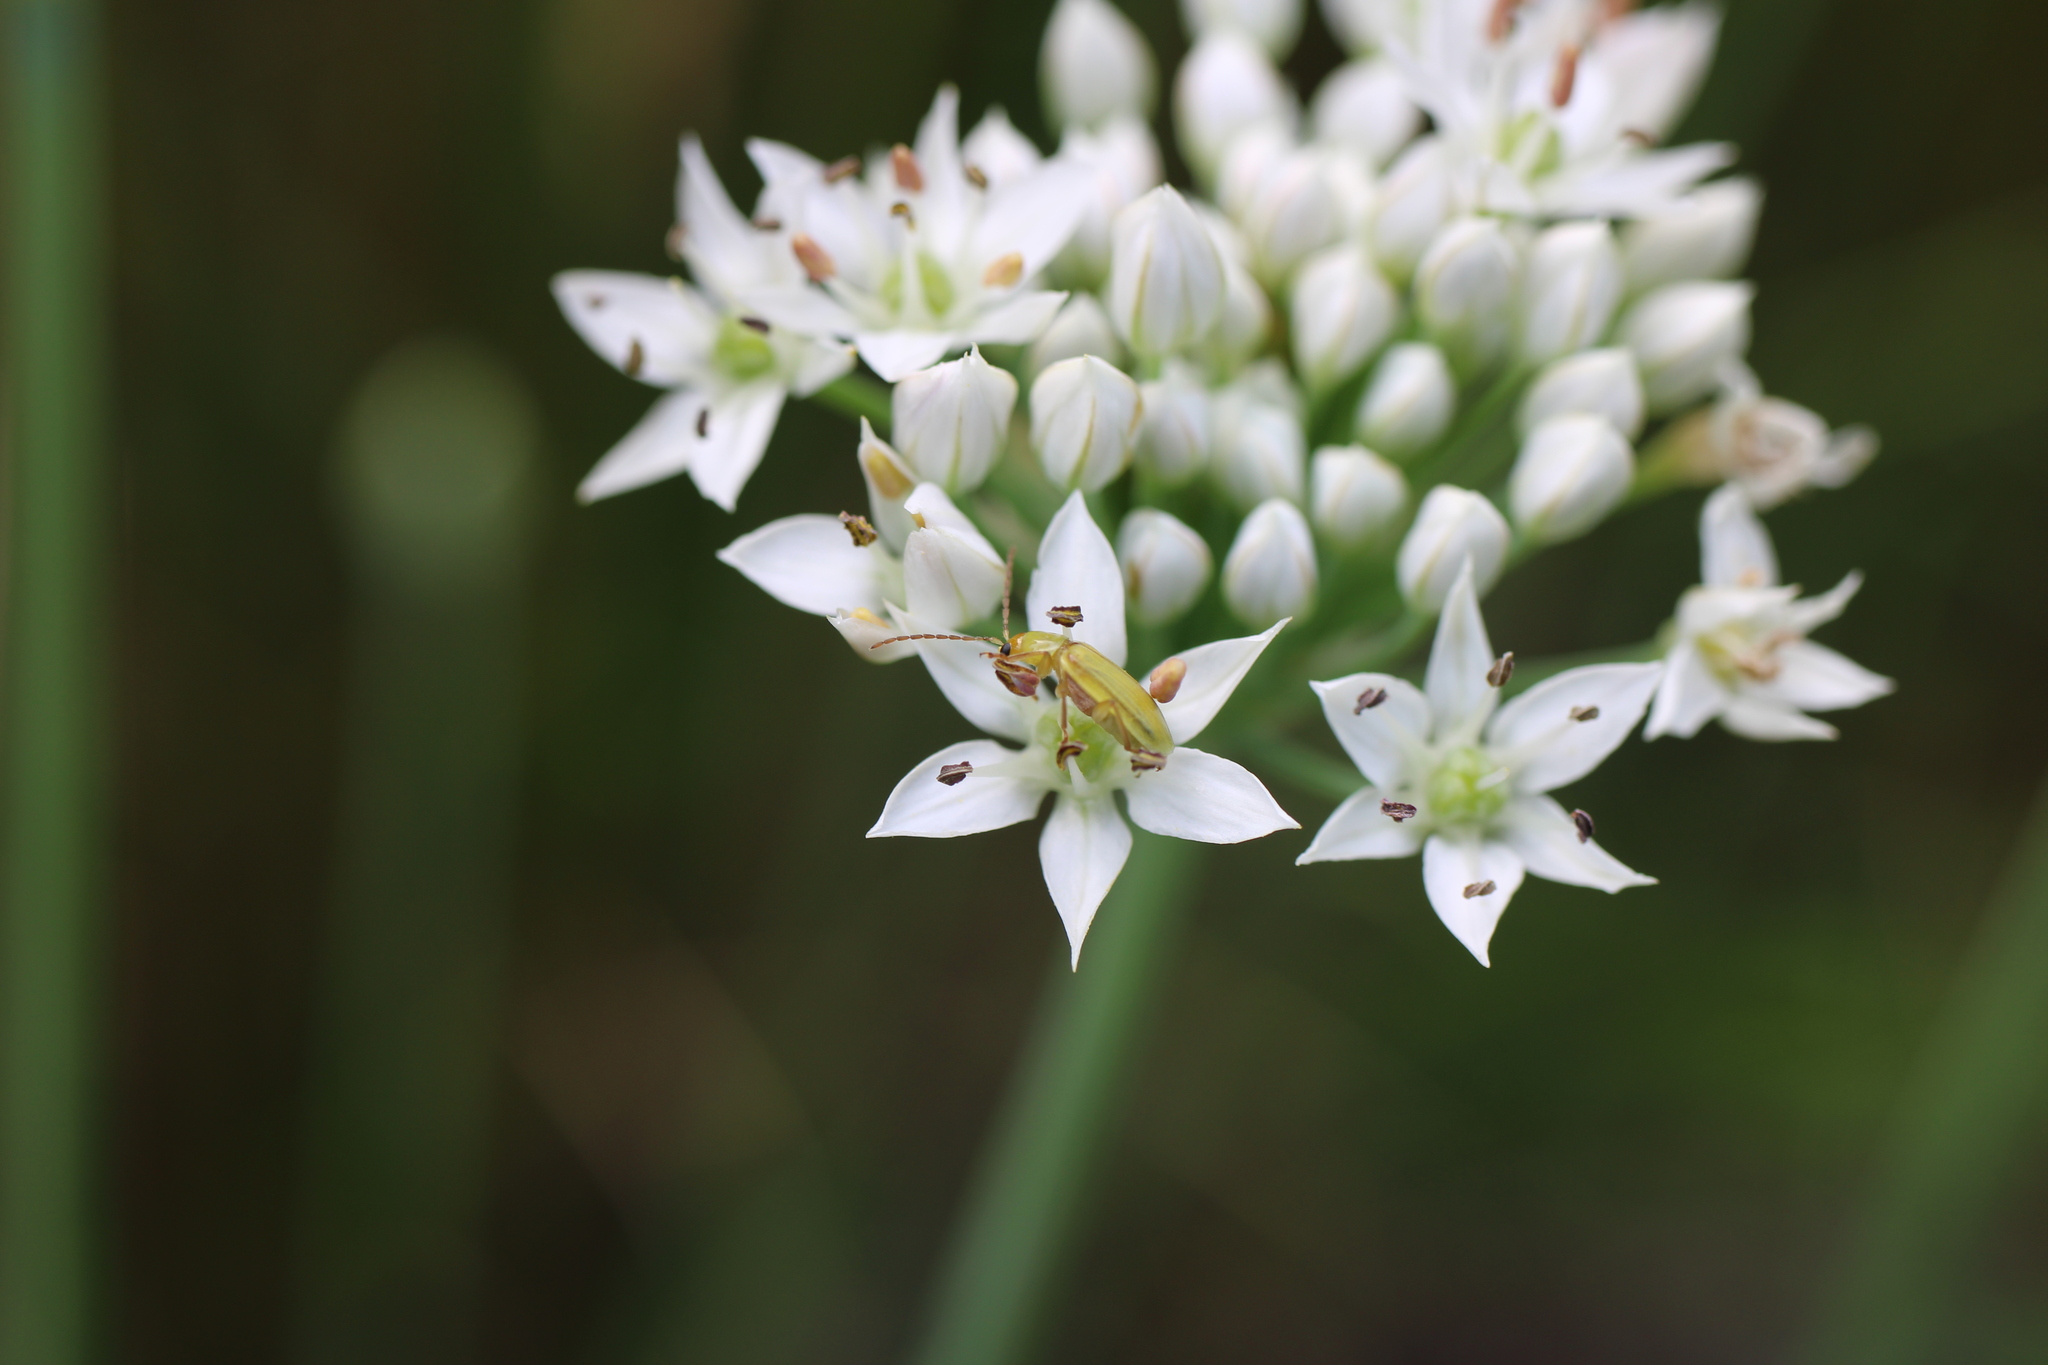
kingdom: Animalia
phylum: Arthropoda
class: Insecta
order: Coleoptera
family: Chrysomelidae
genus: Diabrotica
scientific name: Diabrotica barberi
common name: Northern corn rootworm
